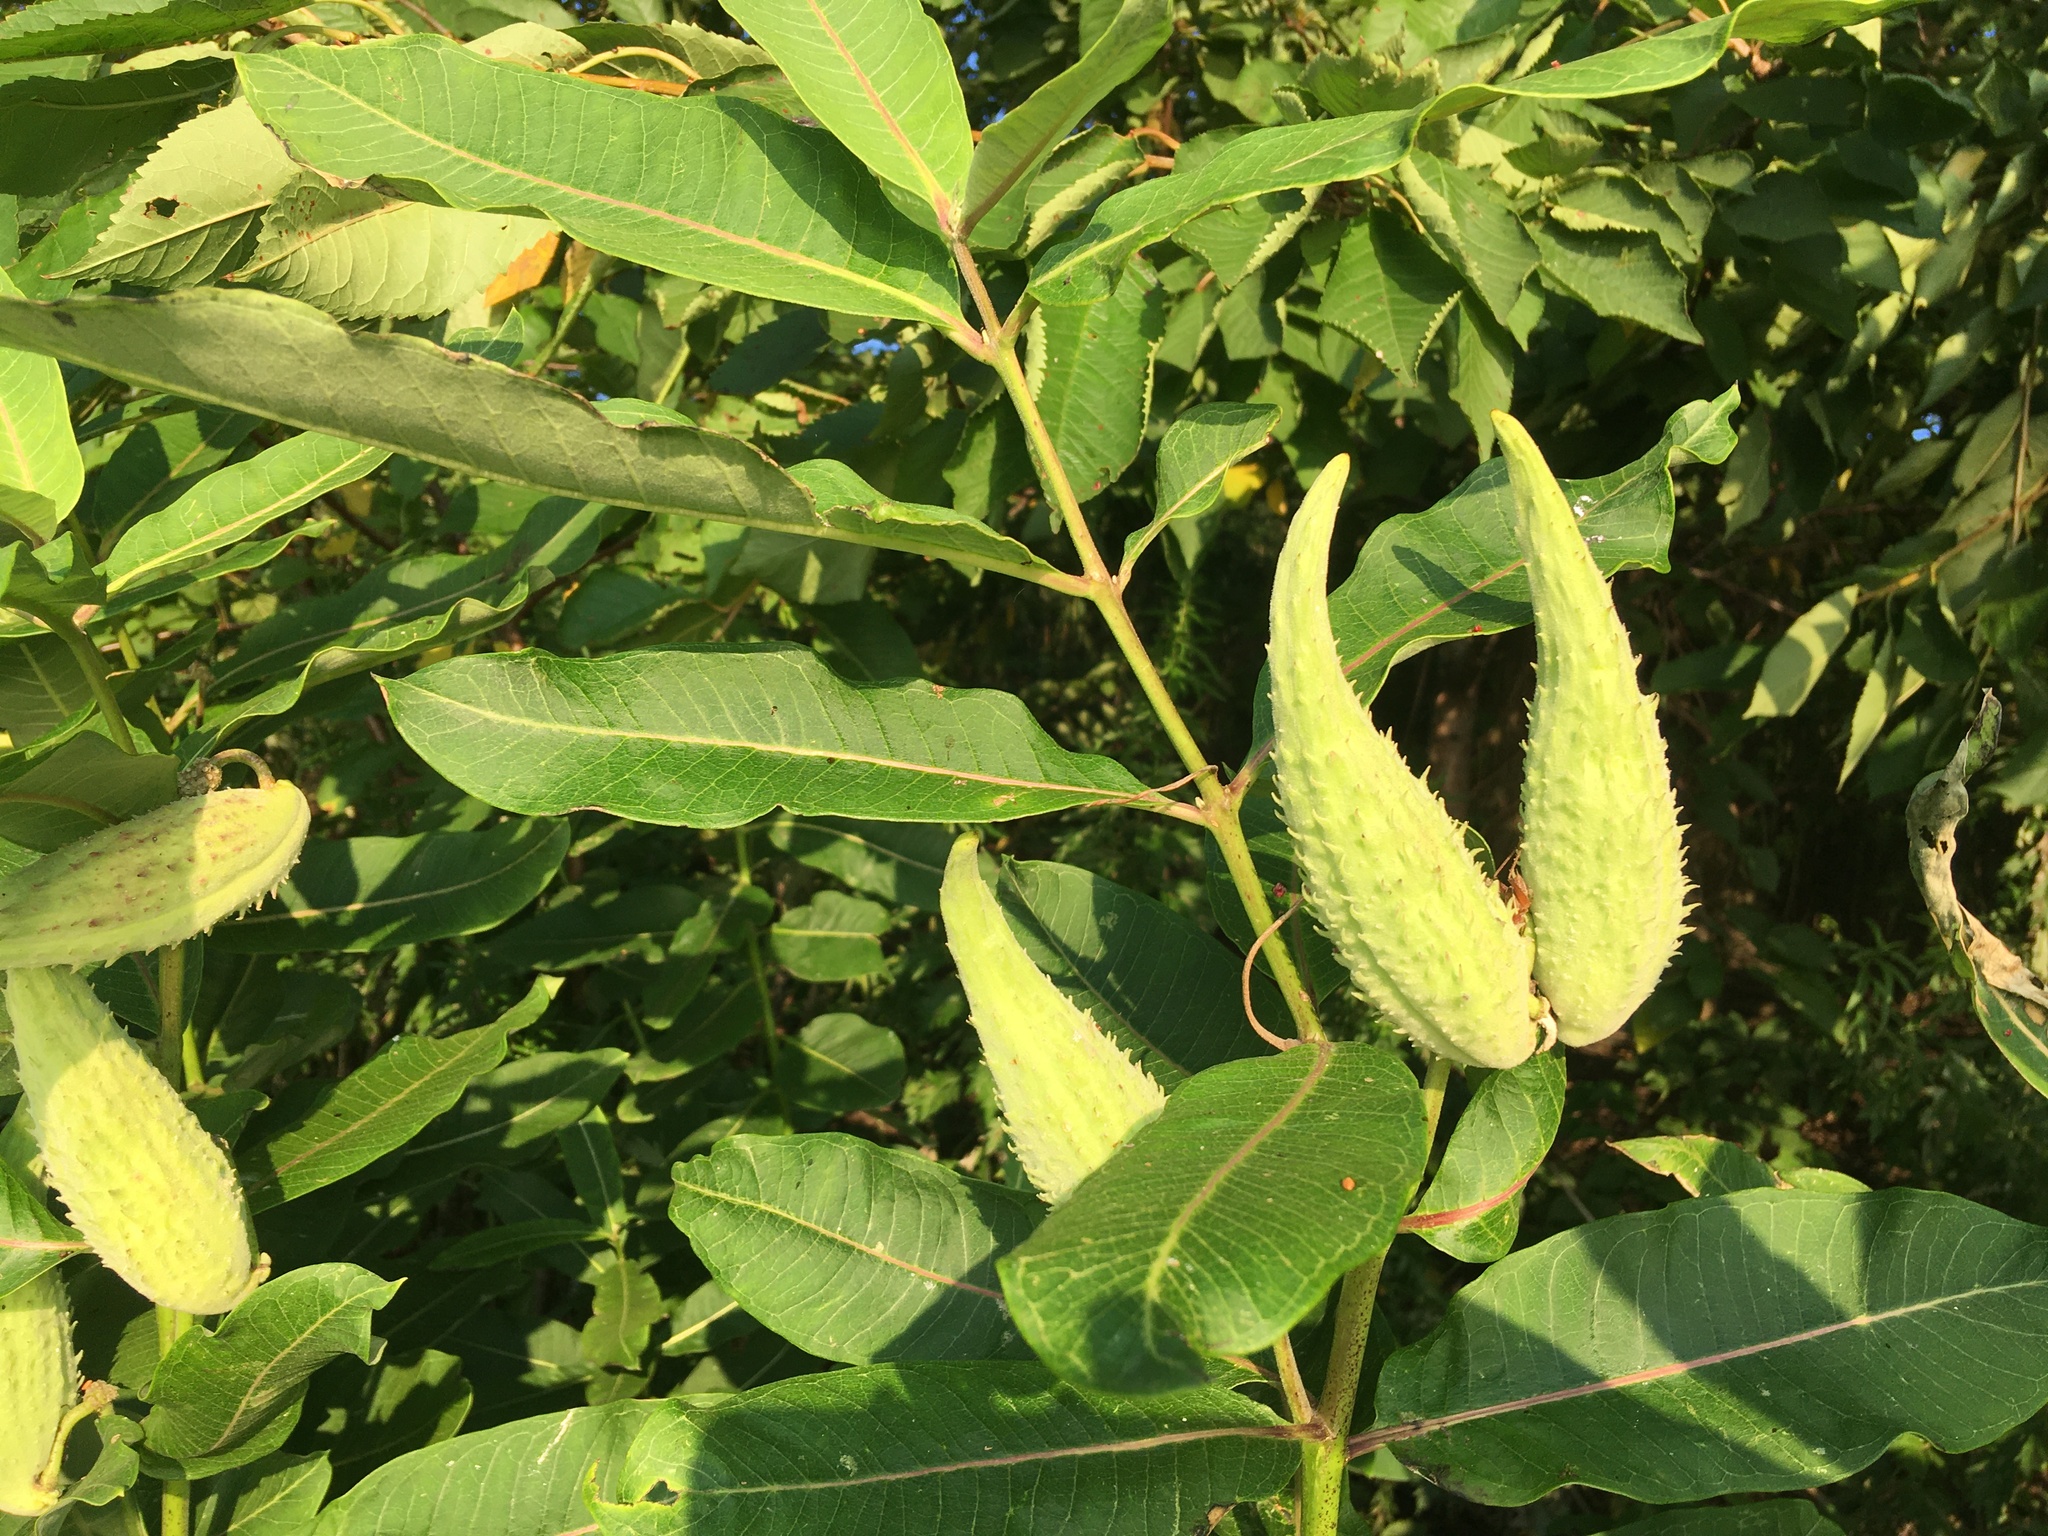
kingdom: Plantae
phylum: Tracheophyta
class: Magnoliopsida
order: Gentianales
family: Apocynaceae
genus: Asclepias
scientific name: Asclepias syriaca
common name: Common milkweed
